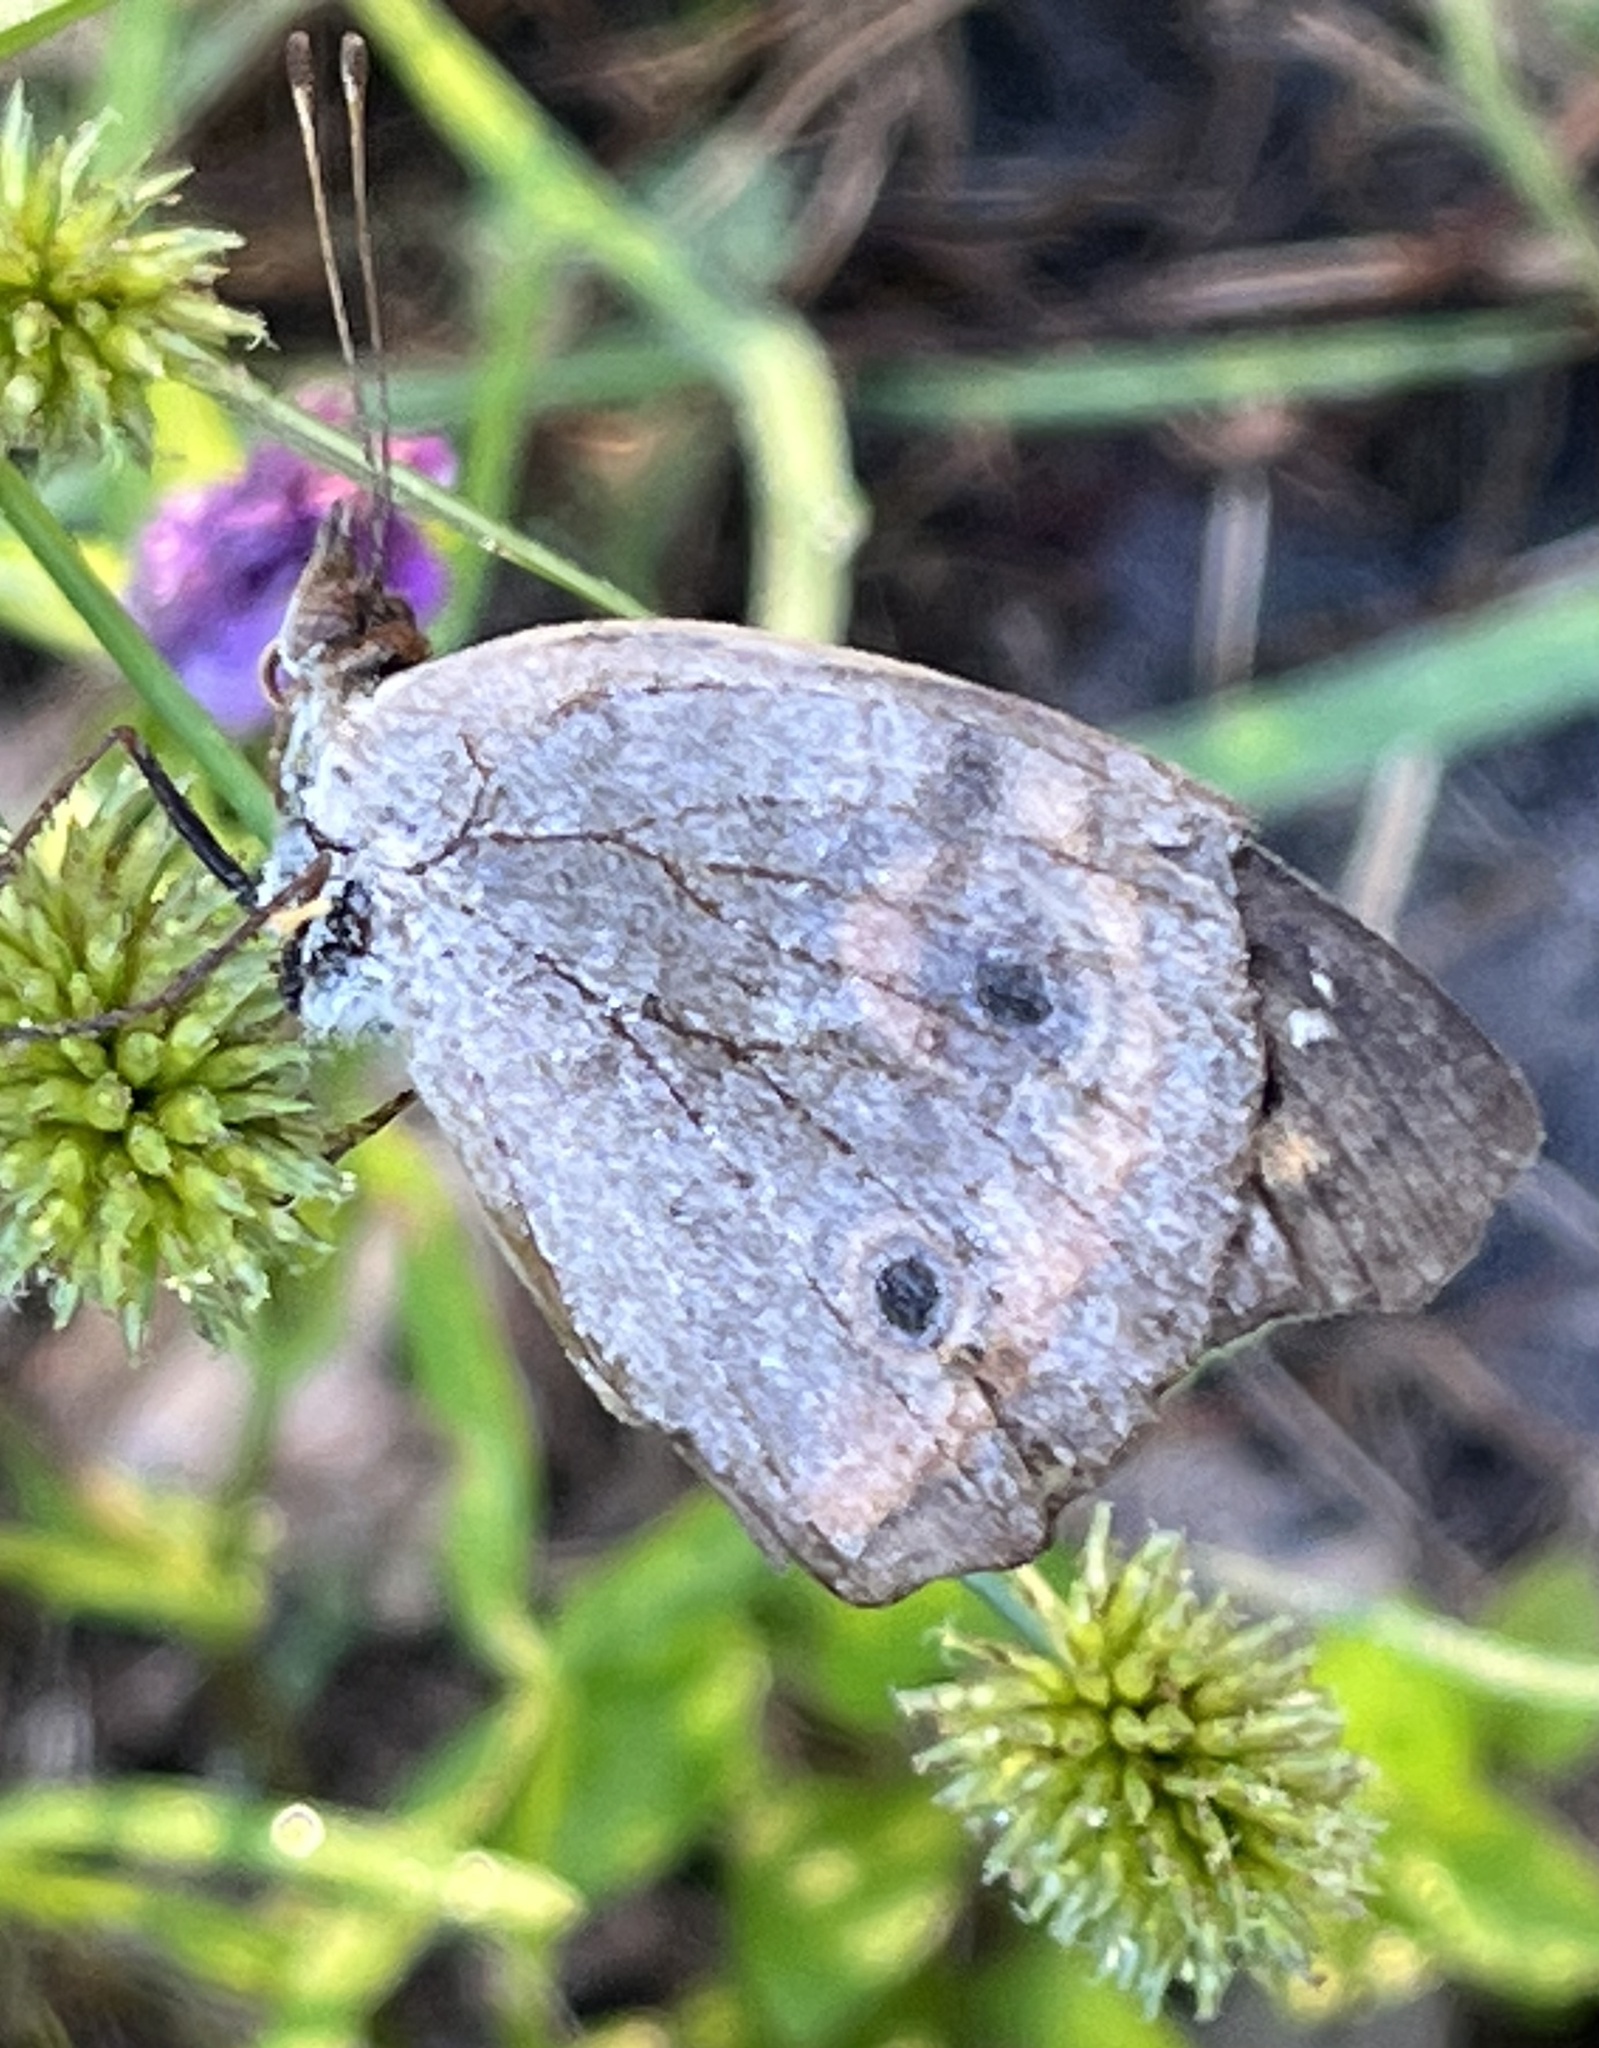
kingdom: Animalia
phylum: Arthropoda
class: Insecta
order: Lepidoptera
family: Nymphalidae
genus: Junonia
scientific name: Junonia coenia
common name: Common buckeye
